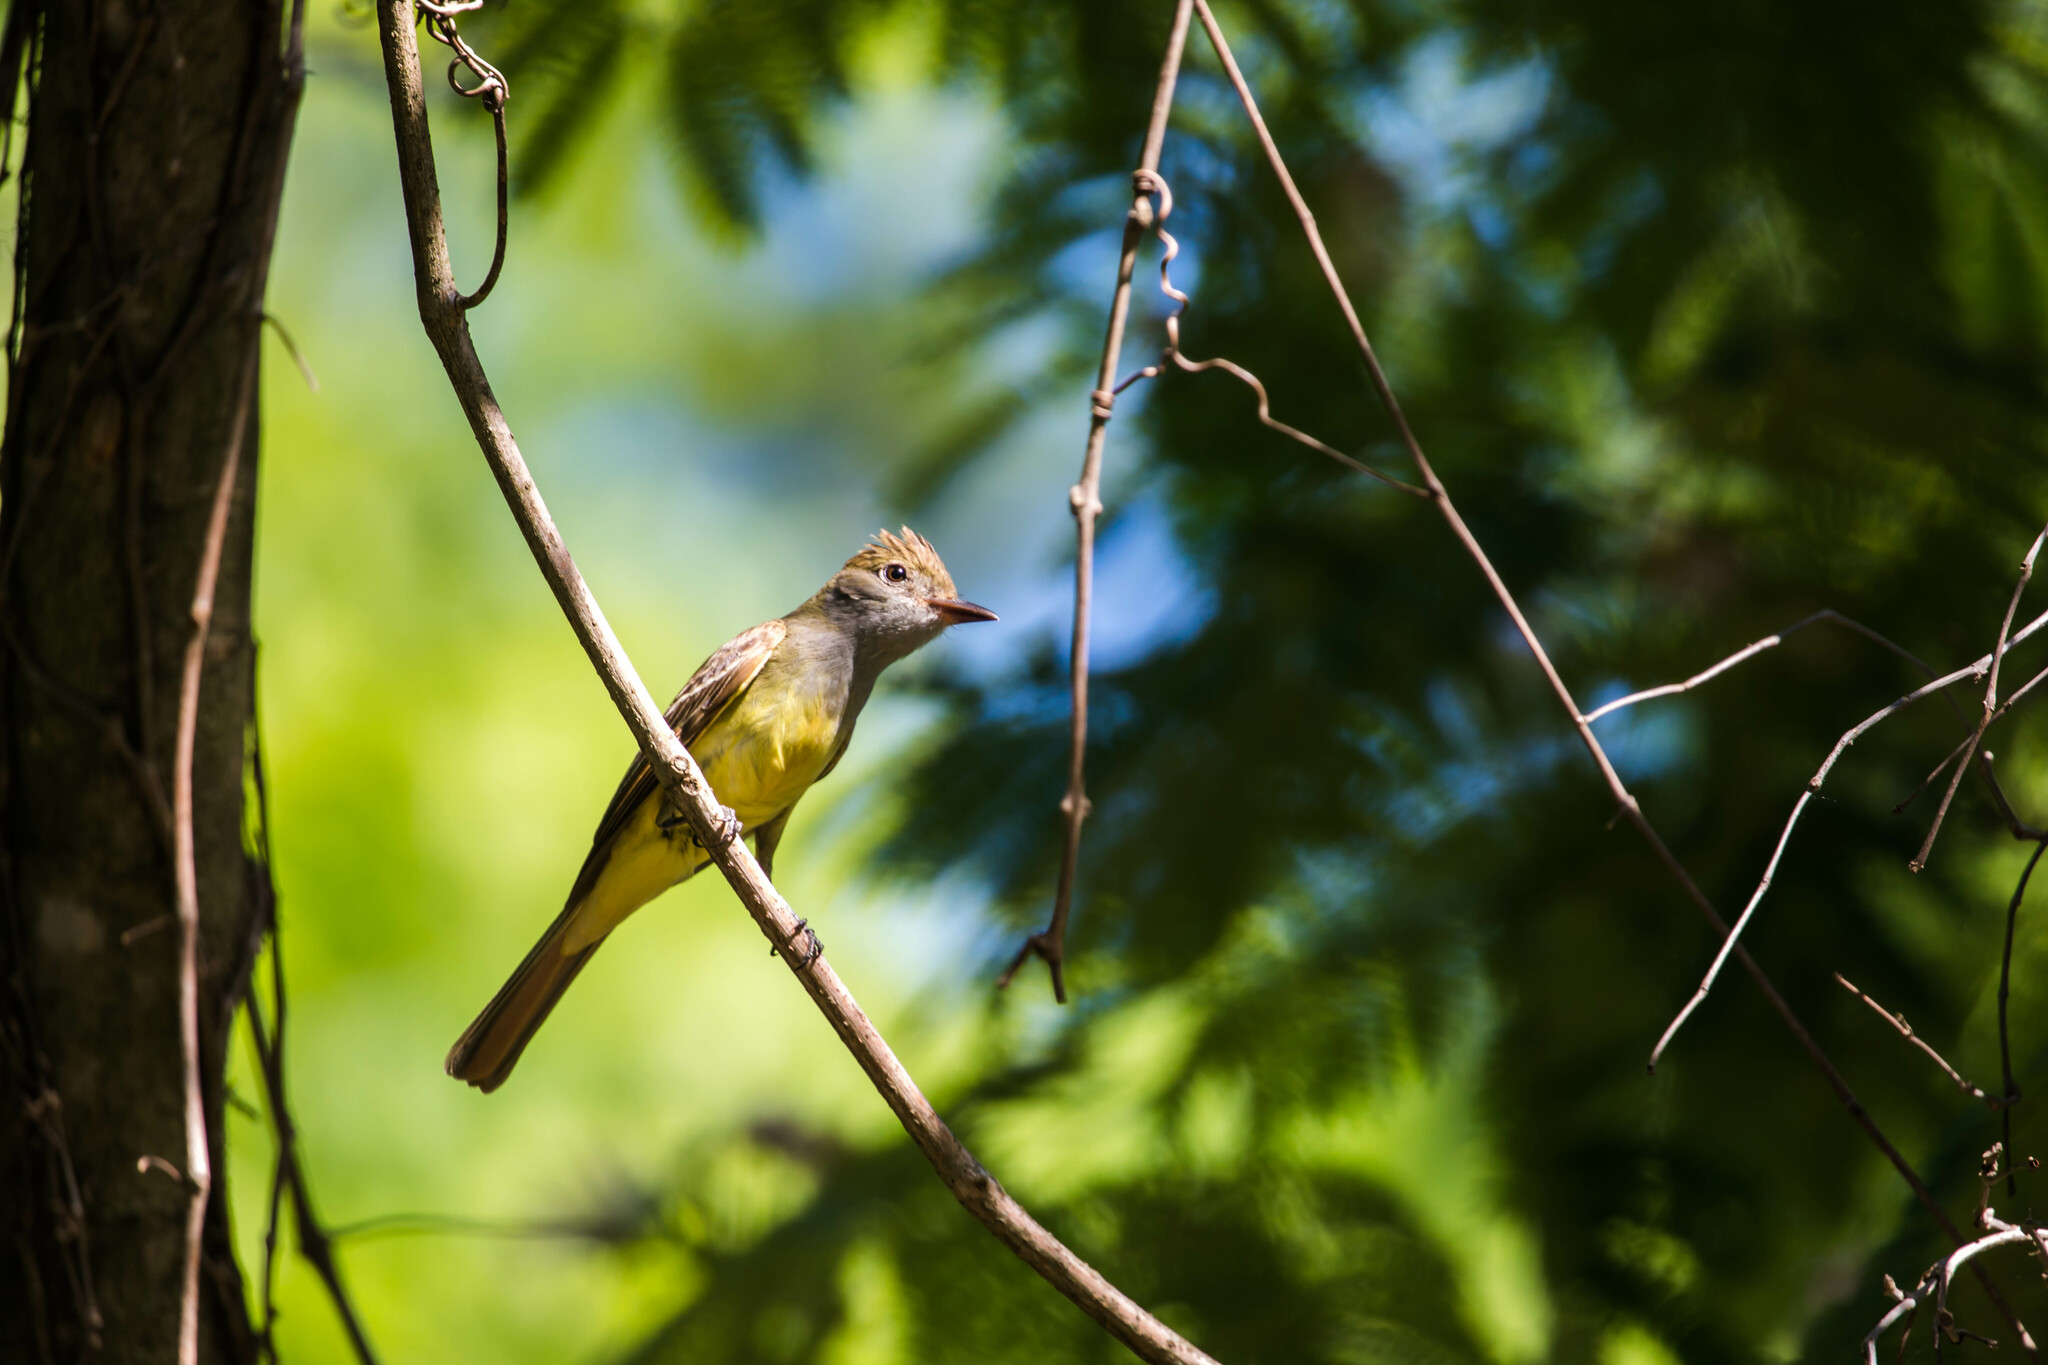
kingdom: Animalia
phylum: Chordata
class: Aves
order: Passeriformes
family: Tyrannidae
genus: Myiarchus
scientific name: Myiarchus crinitus
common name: Great crested flycatcher
